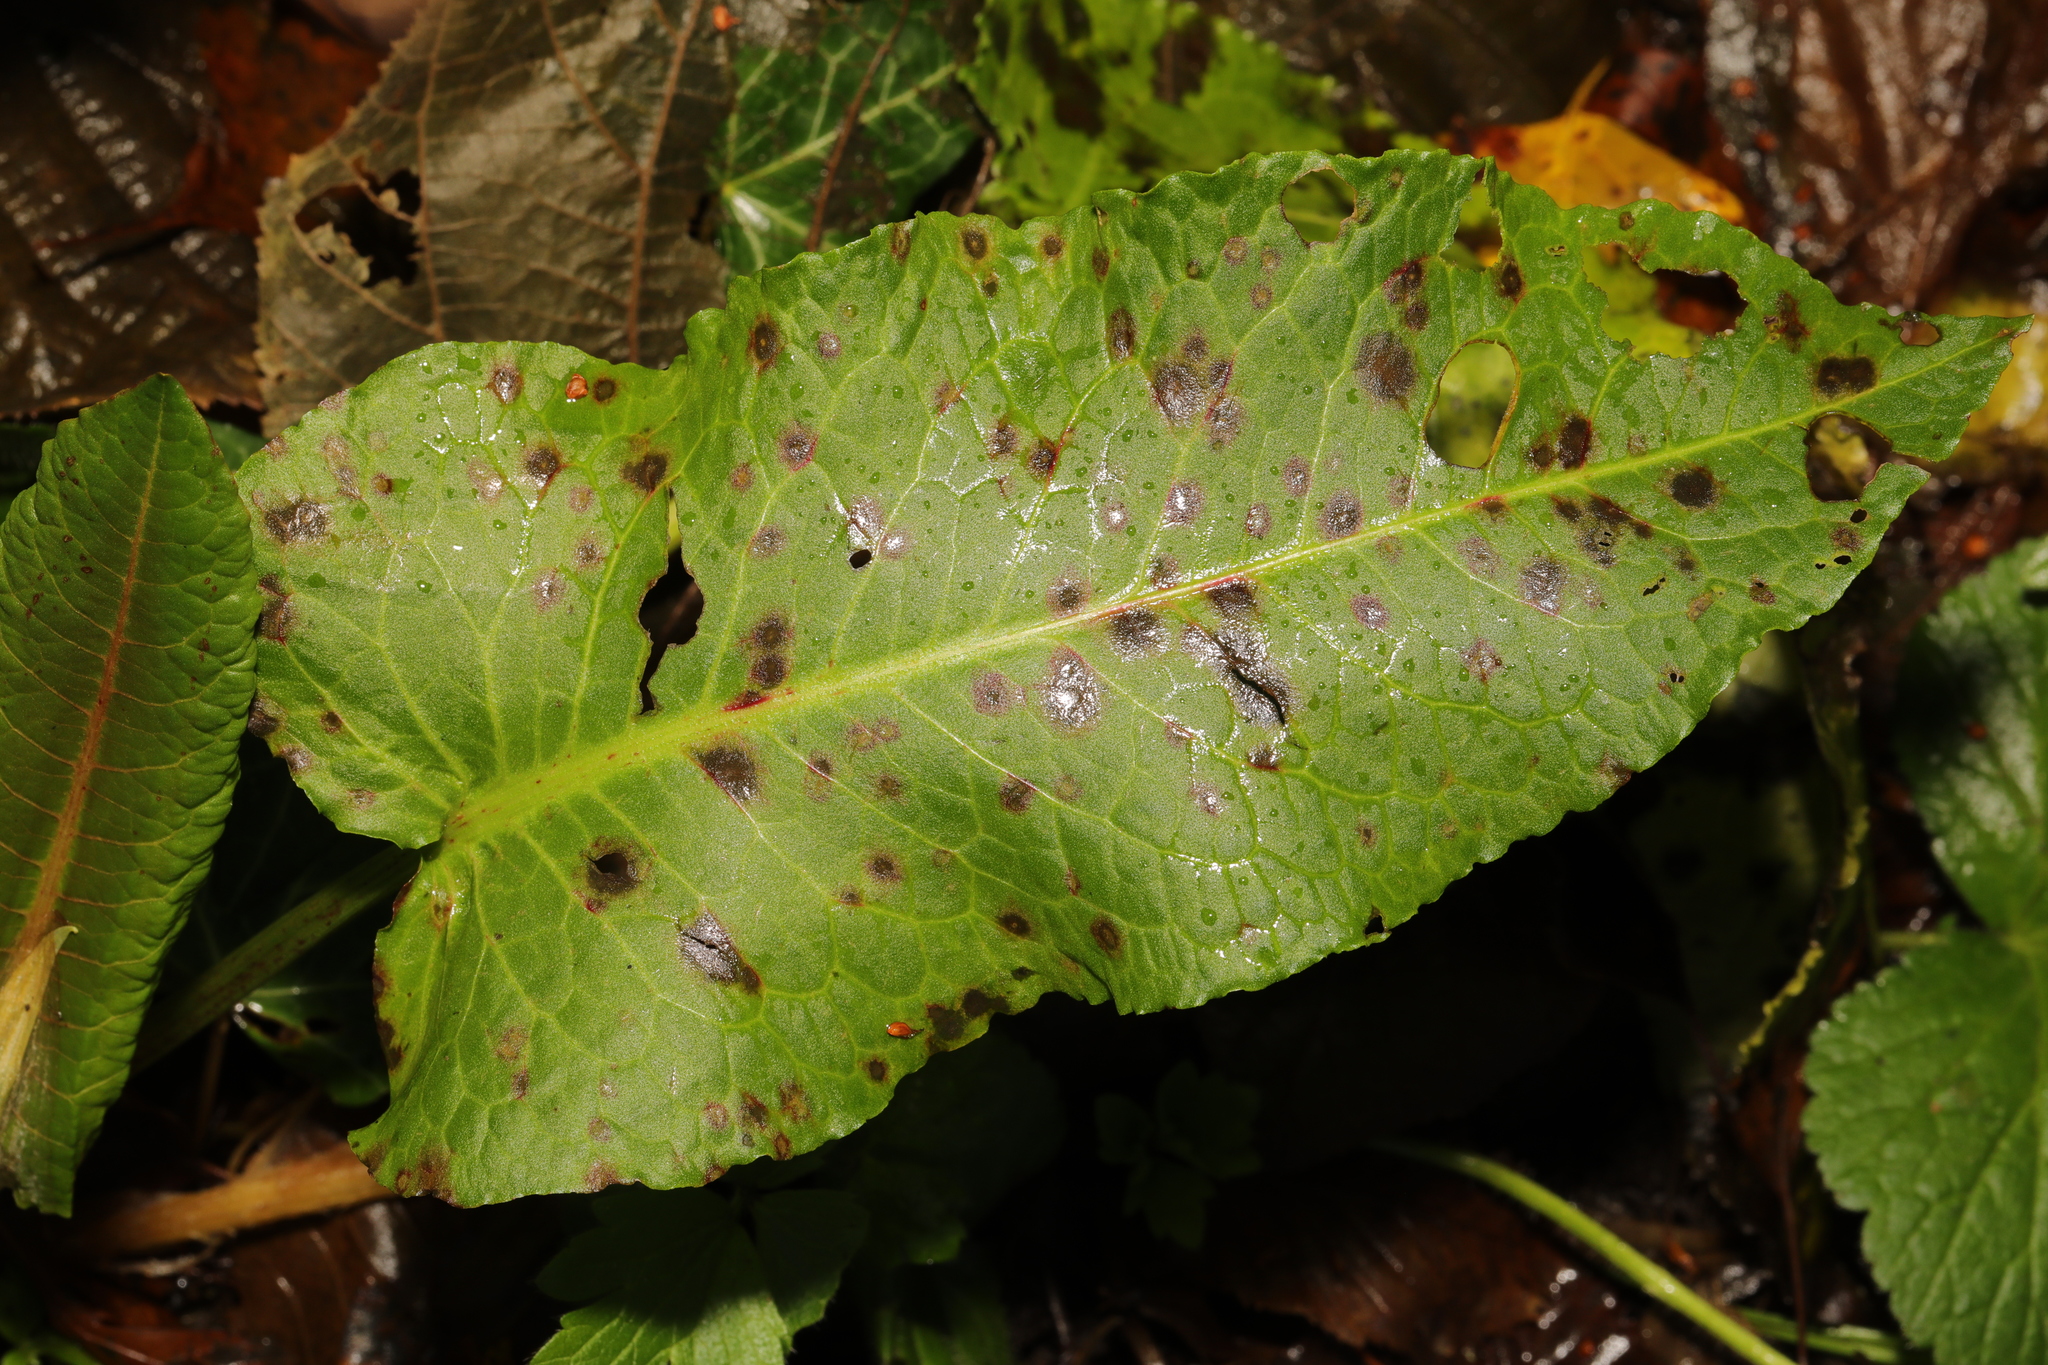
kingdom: Plantae
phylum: Tracheophyta
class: Magnoliopsida
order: Caryophyllales
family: Polygonaceae
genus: Rumex
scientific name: Rumex obtusifolius
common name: Bitter dock
